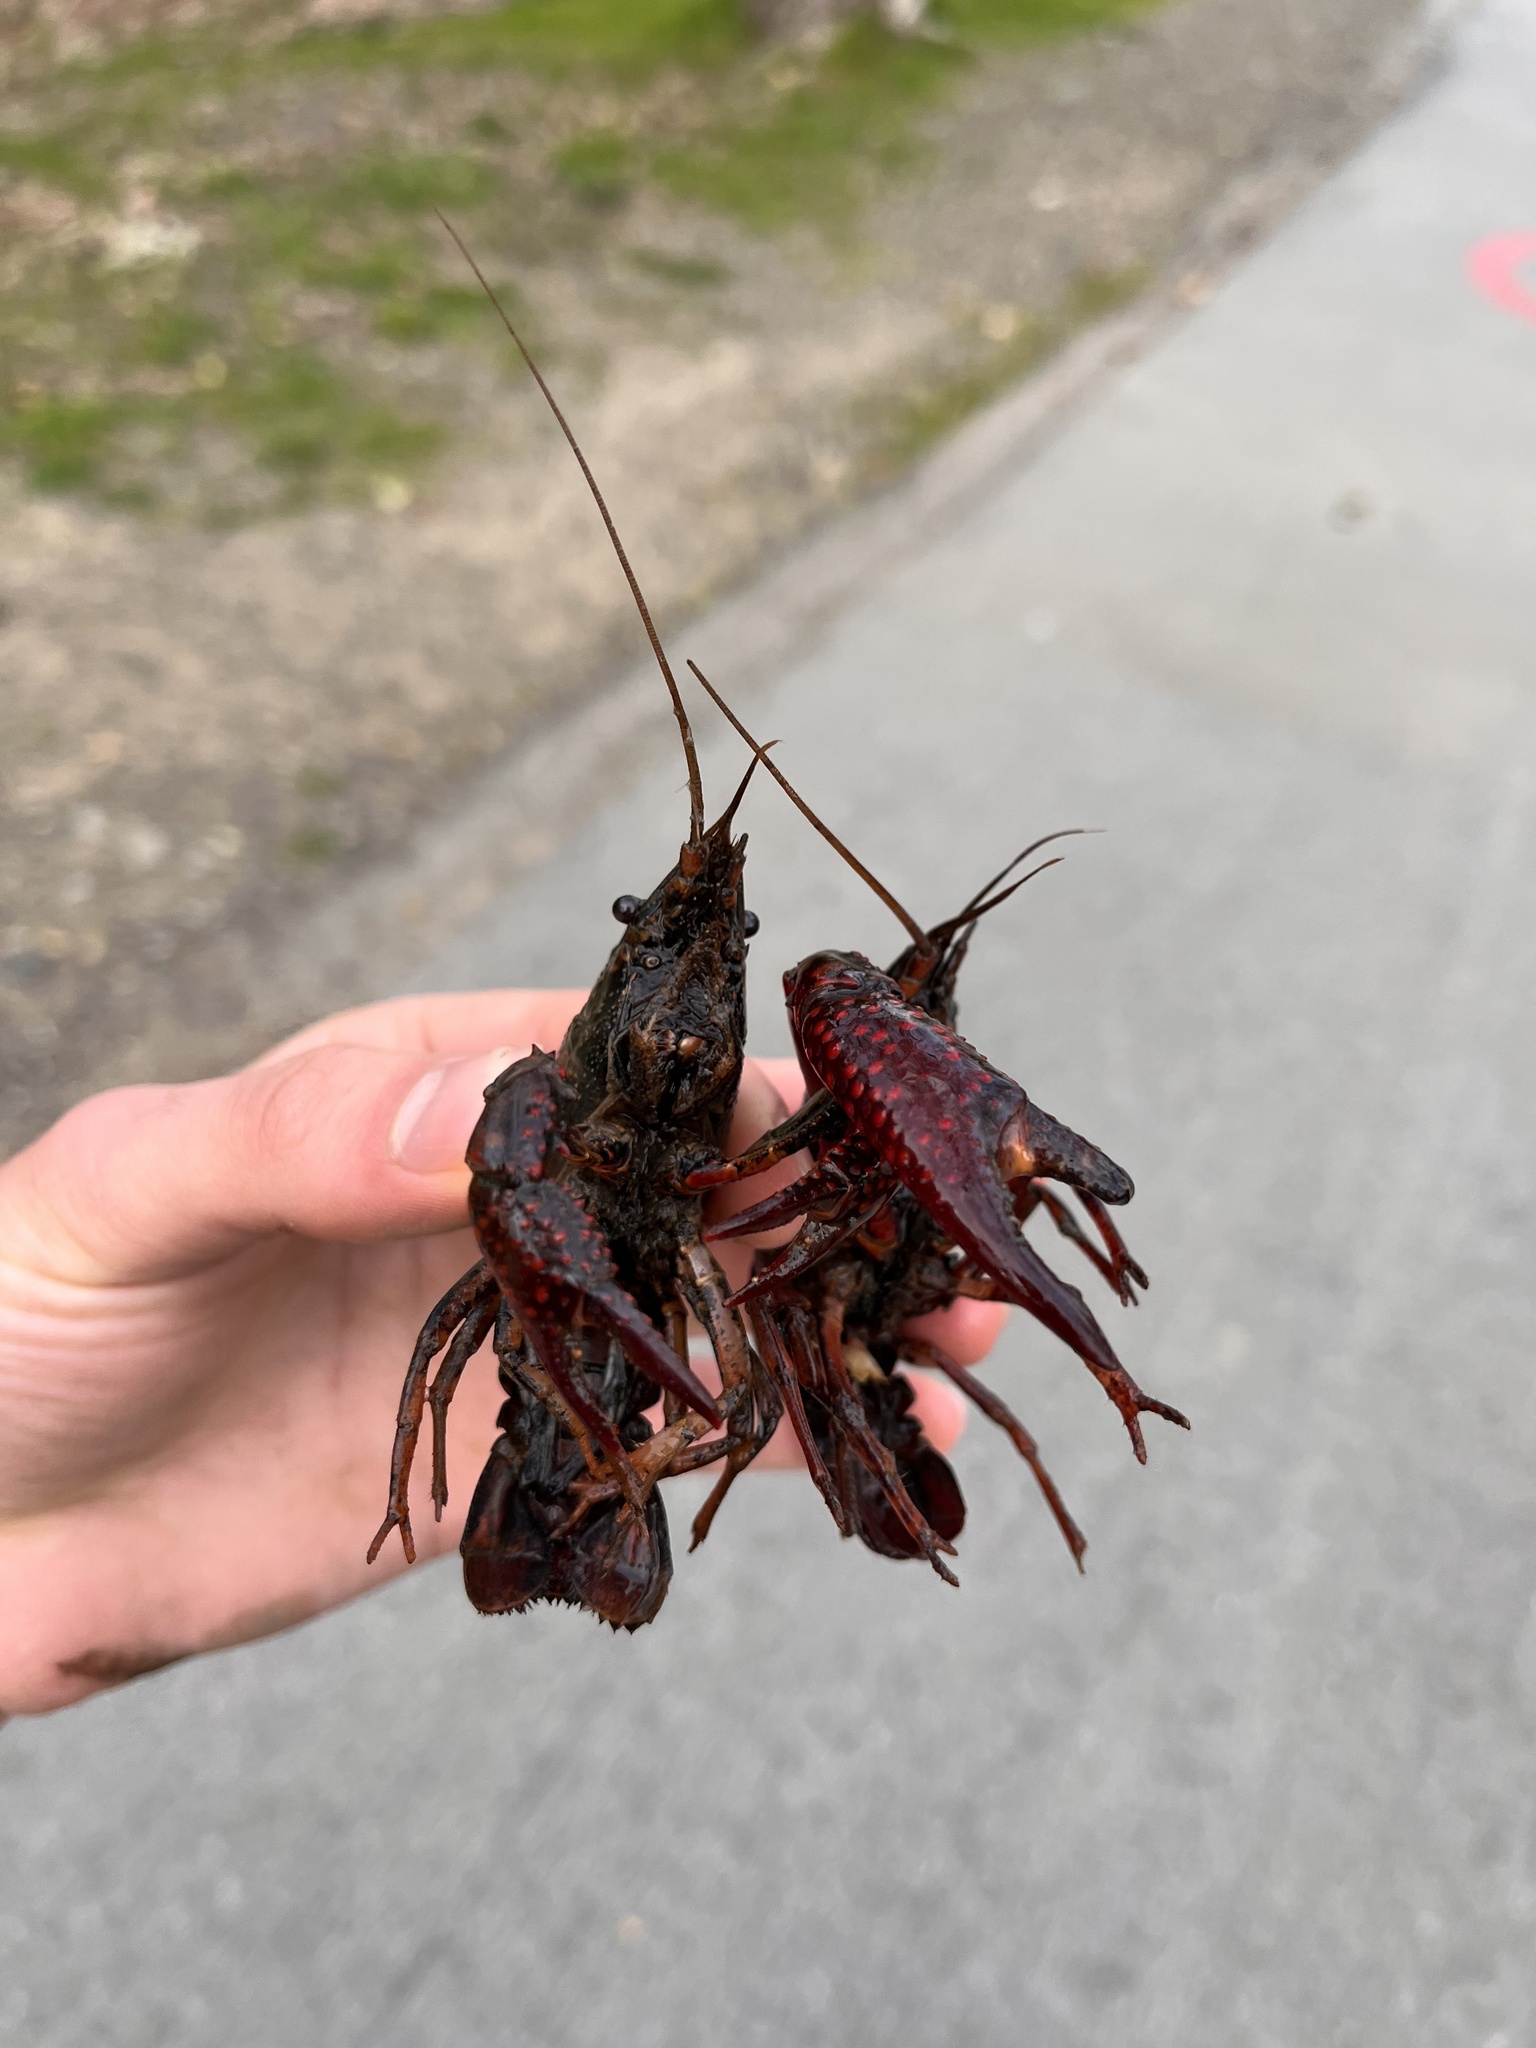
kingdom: Animalia
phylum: Arthropoda
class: Malacostraca
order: Decapoda
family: Cambaridae
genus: Procambarus
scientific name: Procambarus clarkii
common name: Red swamp crayfish
